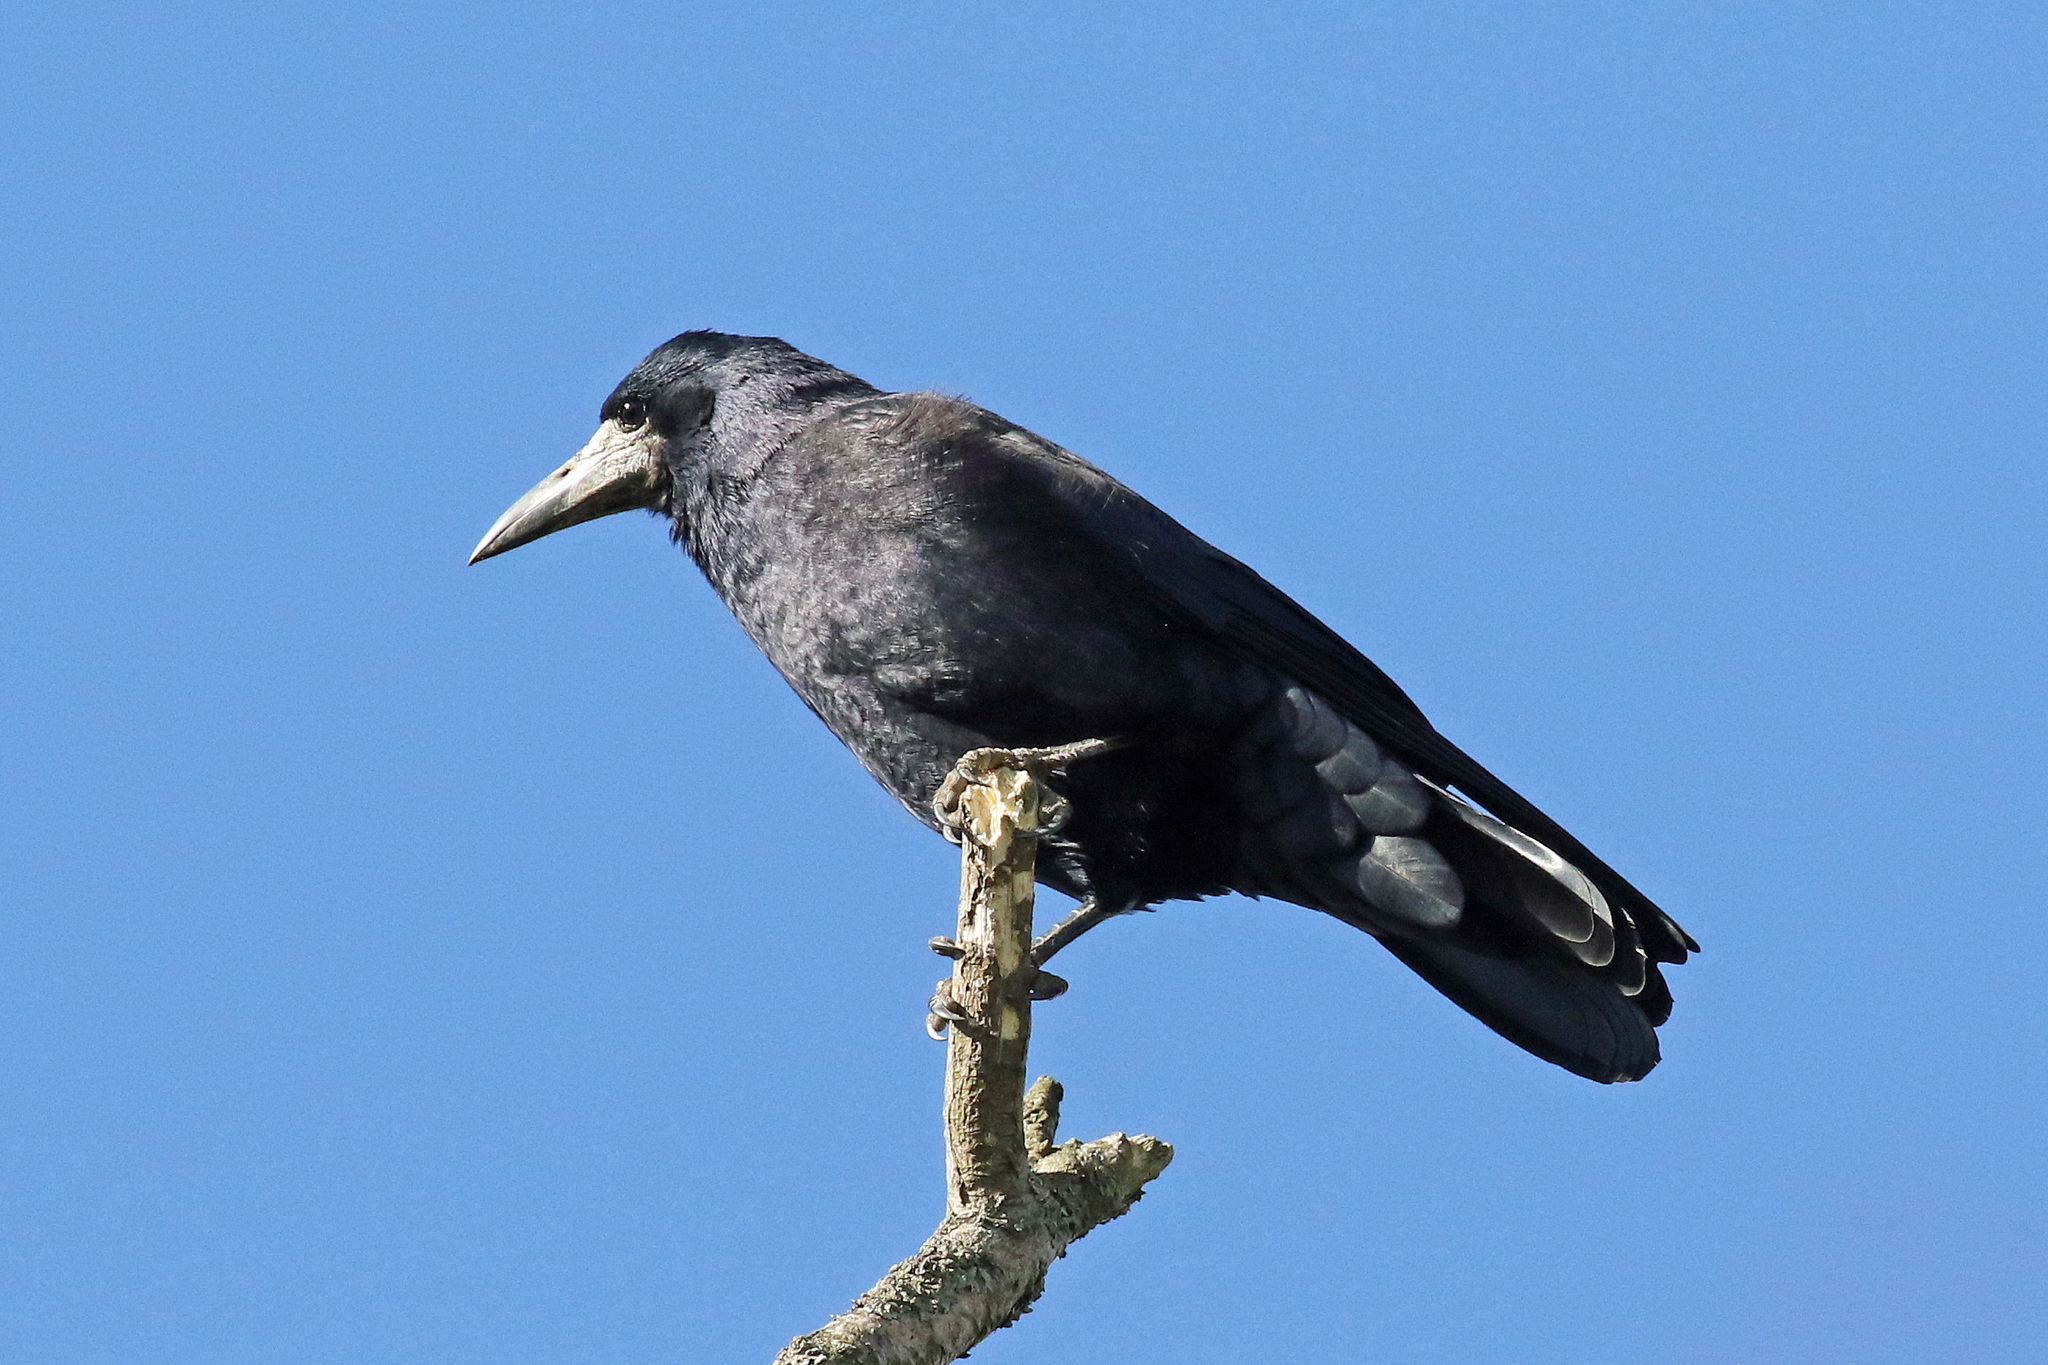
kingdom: Animalia
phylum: Chordata
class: Aves
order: Passeriformes
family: Corvidae
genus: Corvus
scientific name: Corvus frugilegus
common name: Rook
